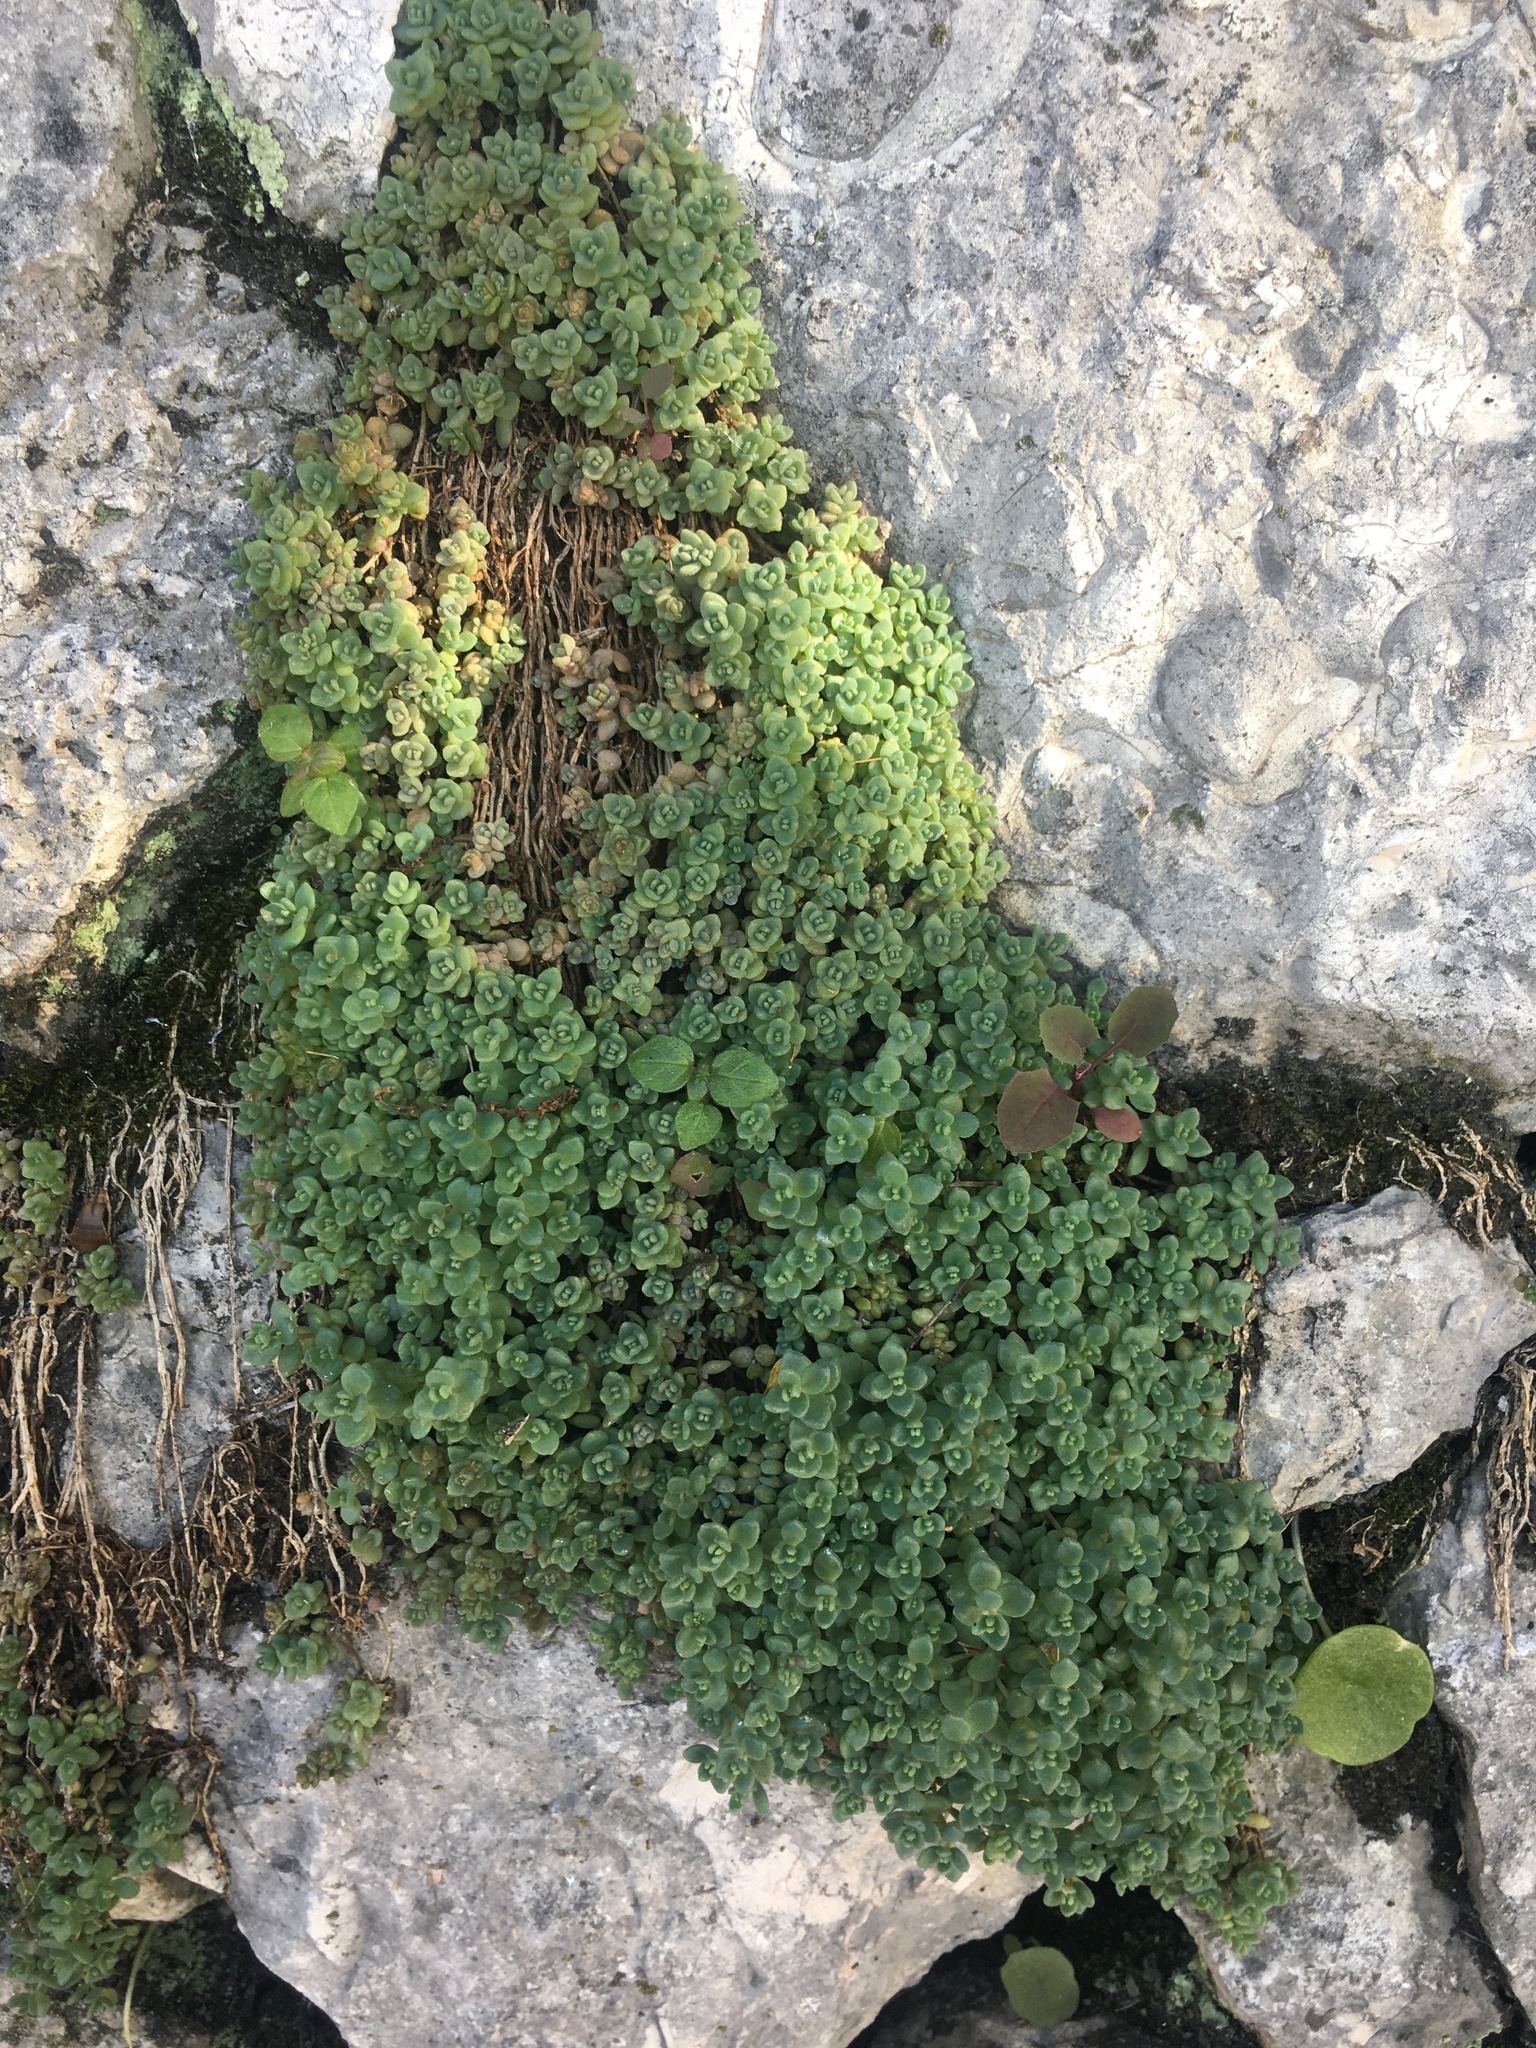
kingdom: Plantae
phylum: Tracheophyta
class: Magnoliopsida
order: Saxifragales
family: Crassulaceae
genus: Sedum
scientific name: Sedum dasyphyllum
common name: Thick-leaf stonecrop
